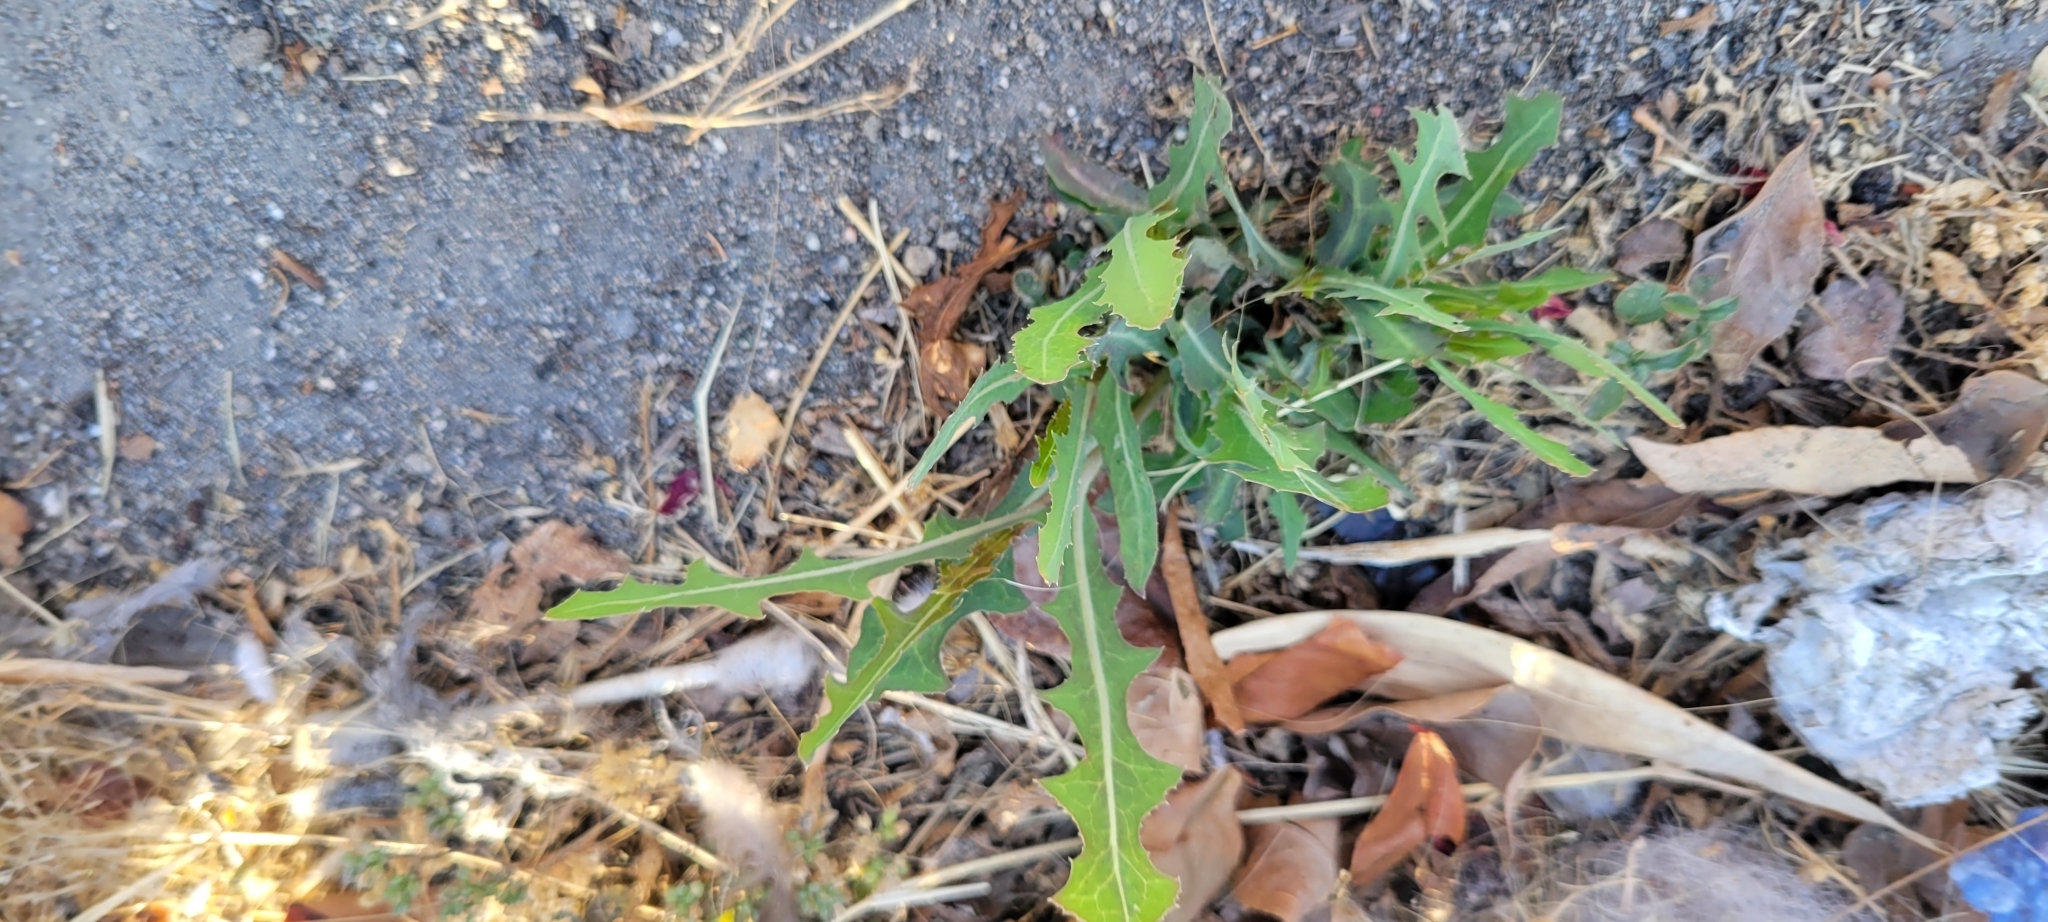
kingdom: Plantae
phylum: Tracheophyta
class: Magnoliopsida
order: Asterales
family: Asteraceae
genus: Lactuca
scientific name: Lactuca serriola
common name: Prickly lettuce
